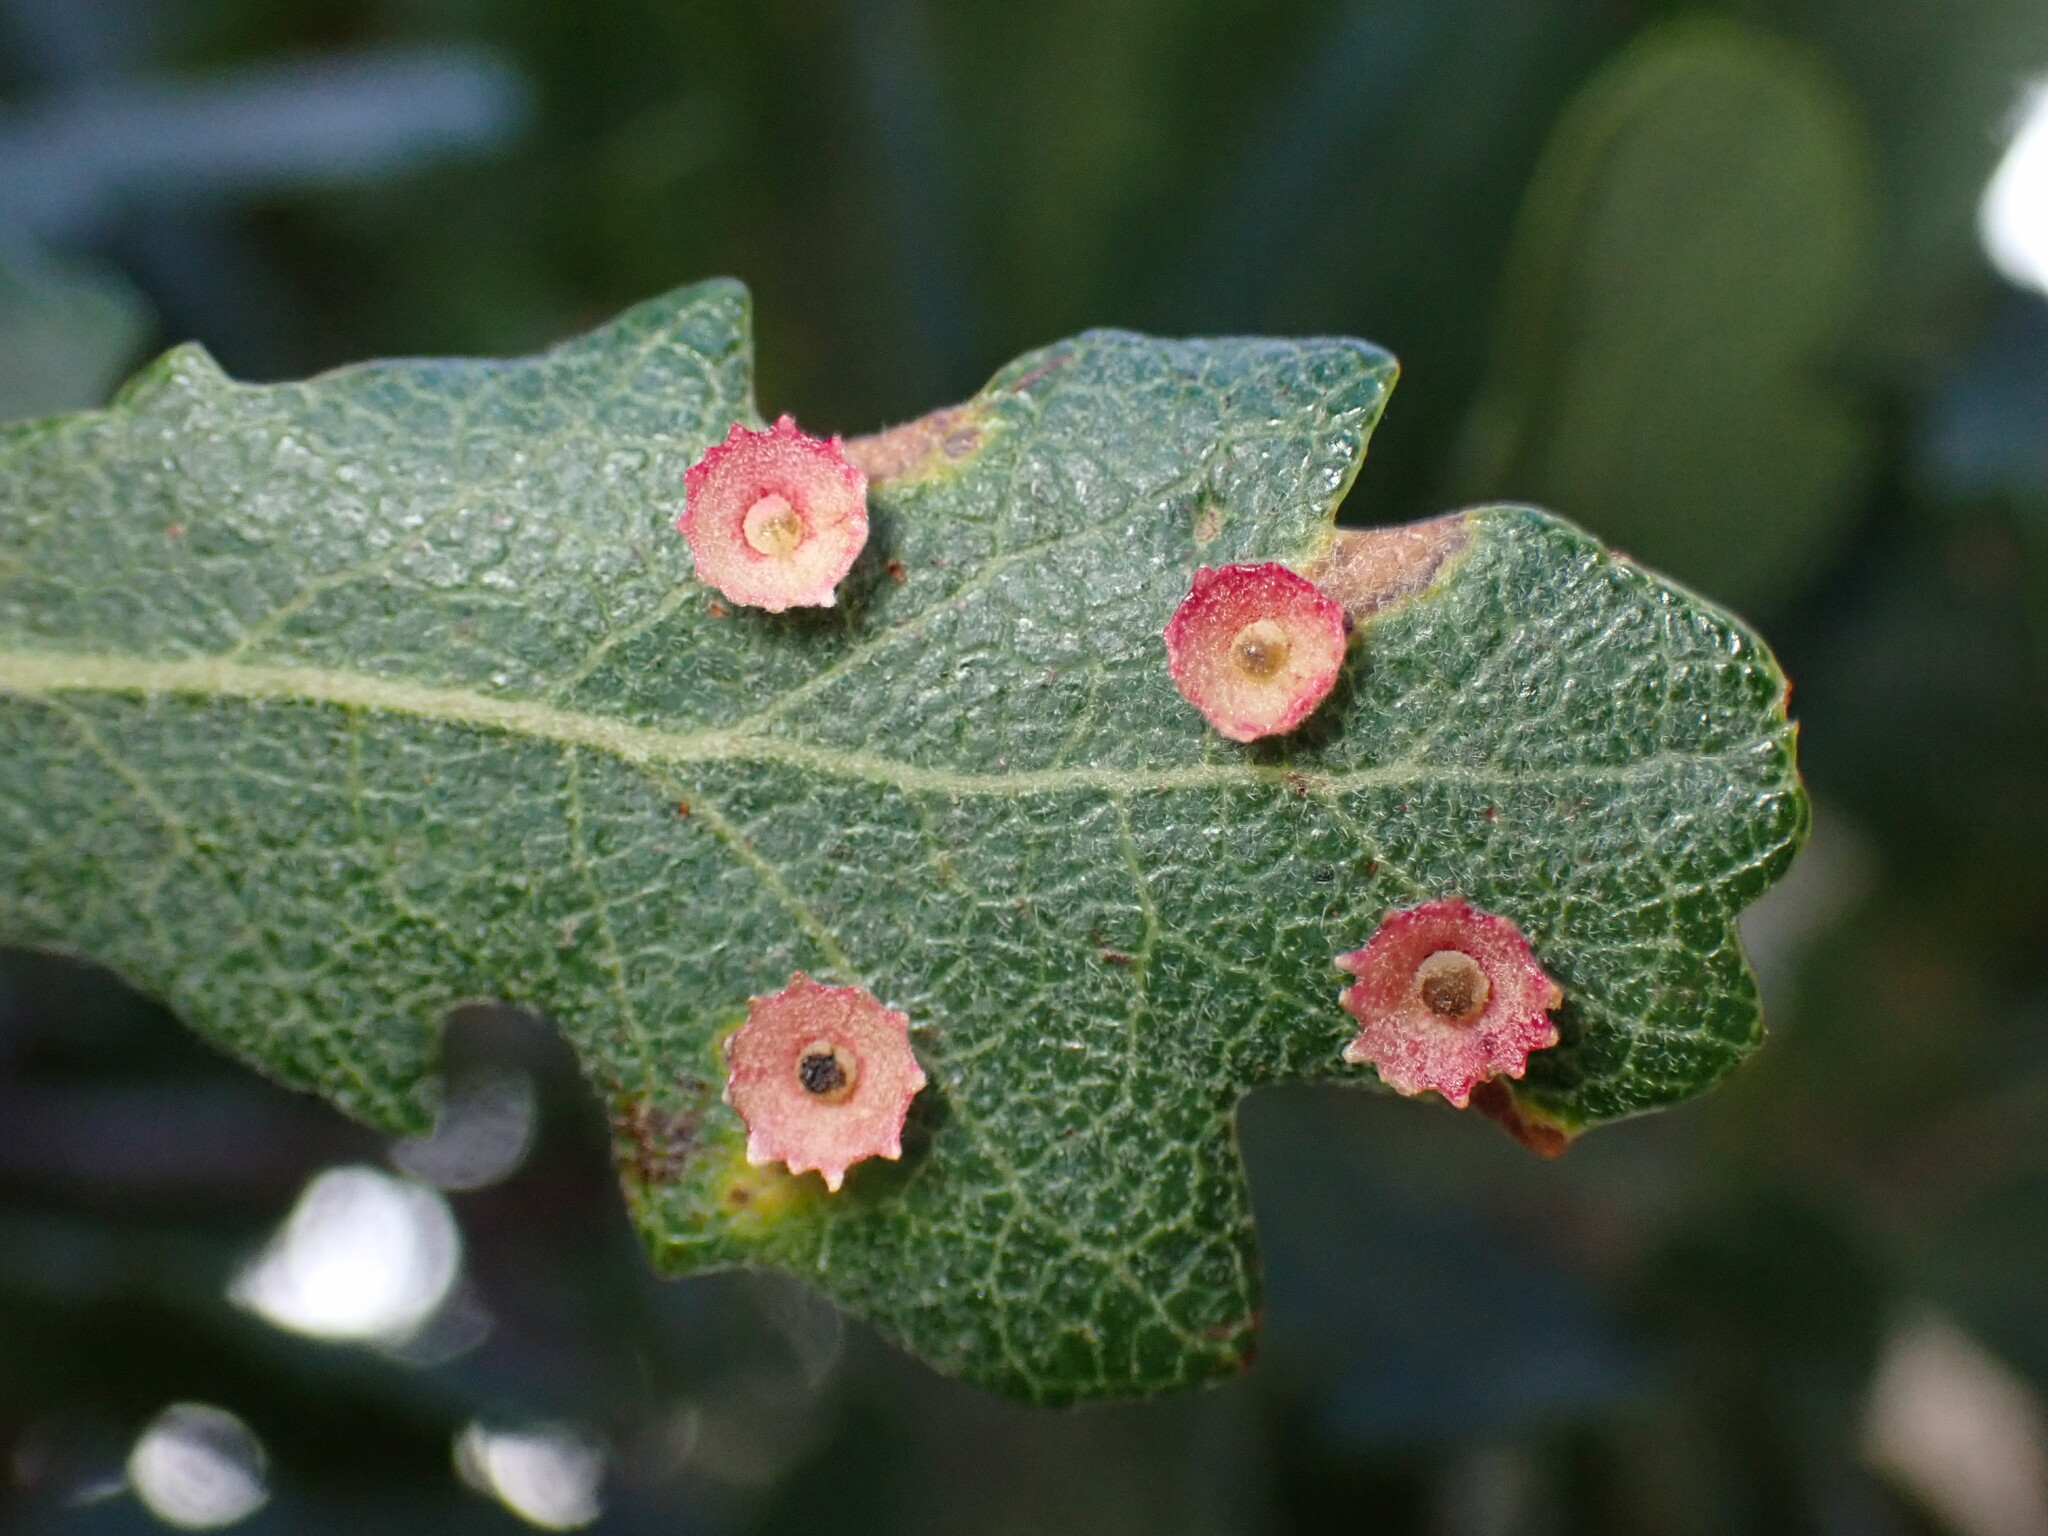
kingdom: Animalia
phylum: Arthropoda
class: Insecta
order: Hymenoptera
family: Cynipidae
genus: Andricus
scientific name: Andricus
